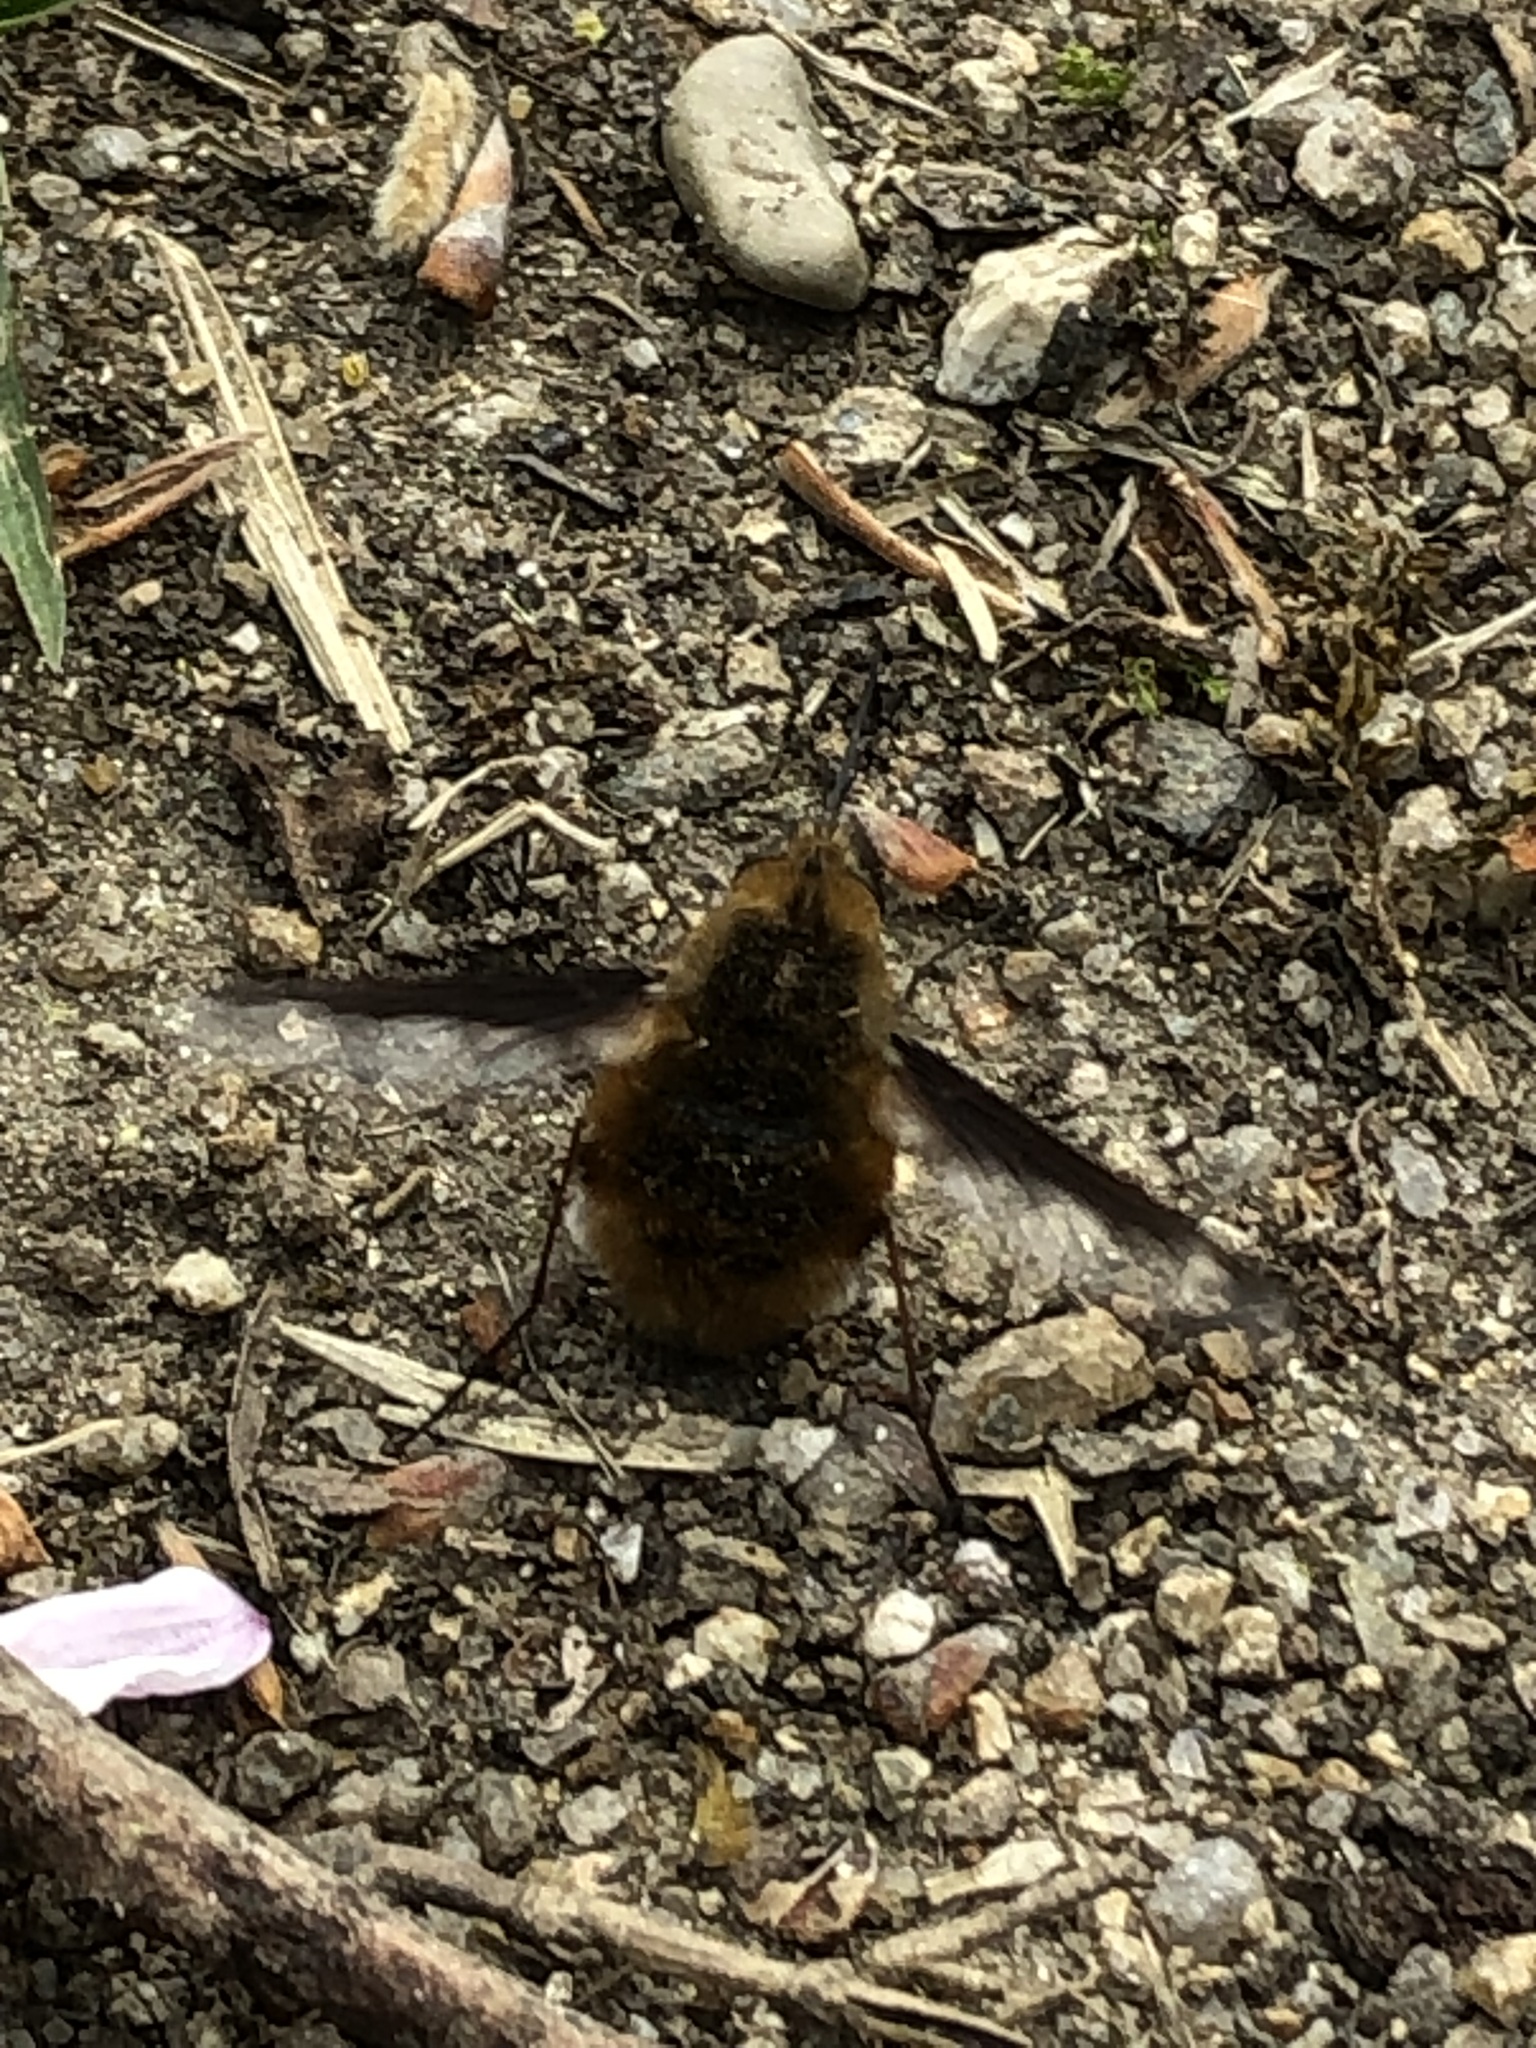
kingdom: Animalia
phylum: Arthropoda
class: Insecta
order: Diptera
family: Bombyliidae
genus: Bombylius
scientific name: Bombylius major
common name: Bee fly
